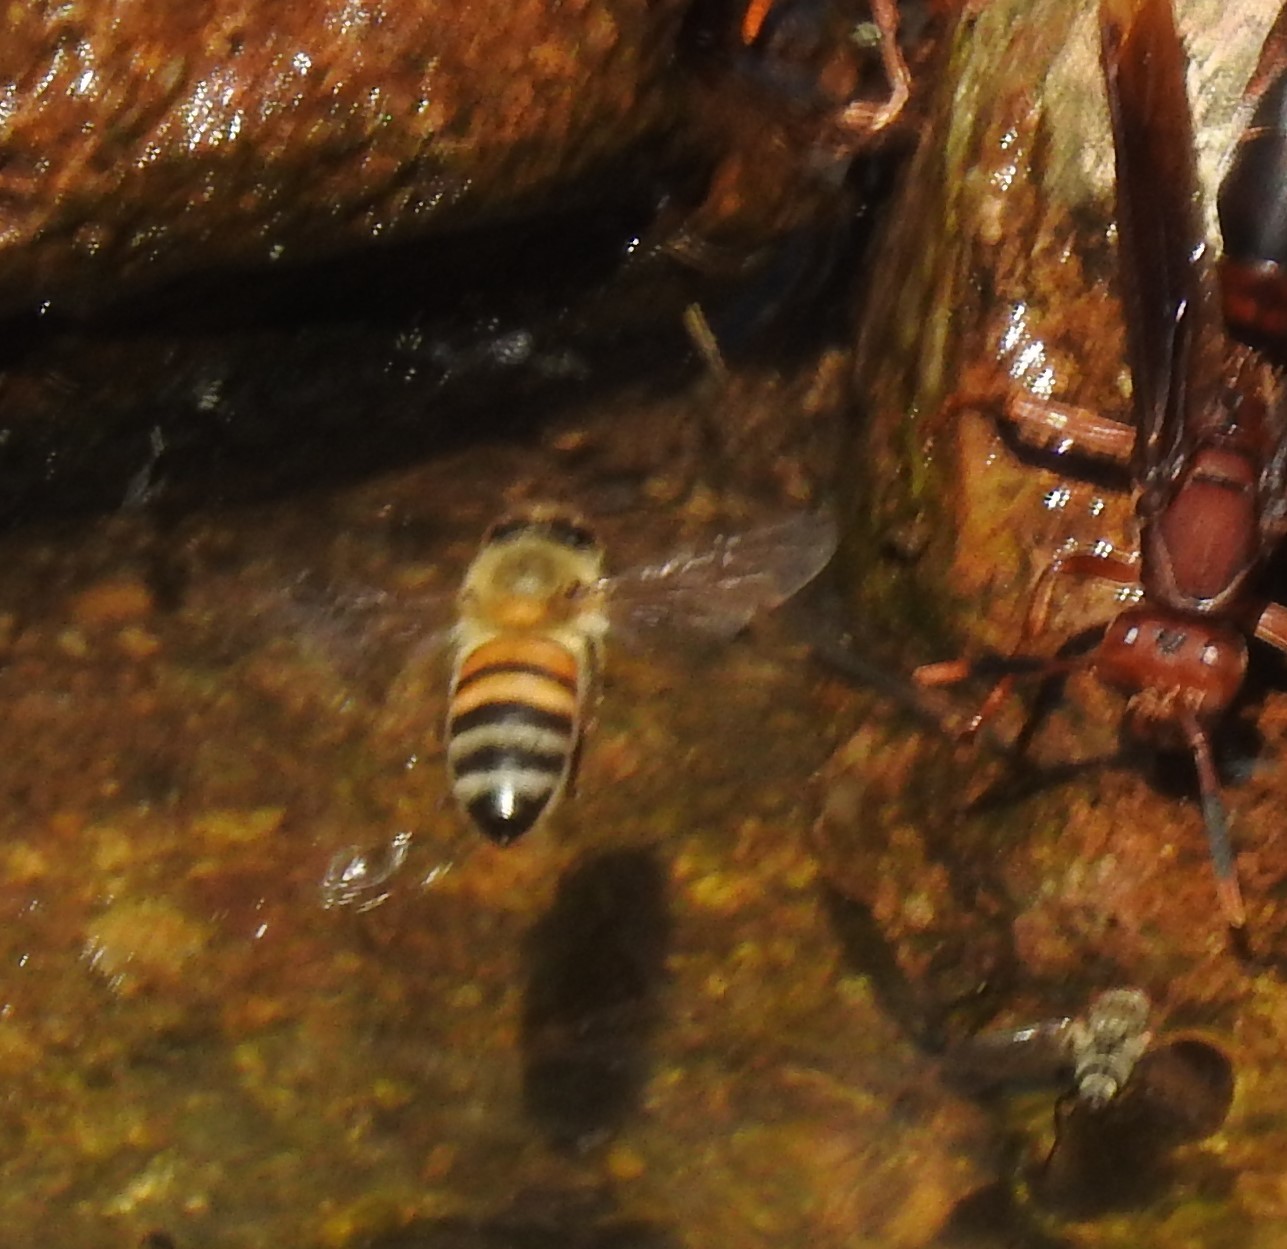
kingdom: Animalia
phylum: Arthropoda
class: Insecta
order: Hymenoptera
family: Apidae
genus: Apis
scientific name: Apis mellifera
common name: Honey bee
